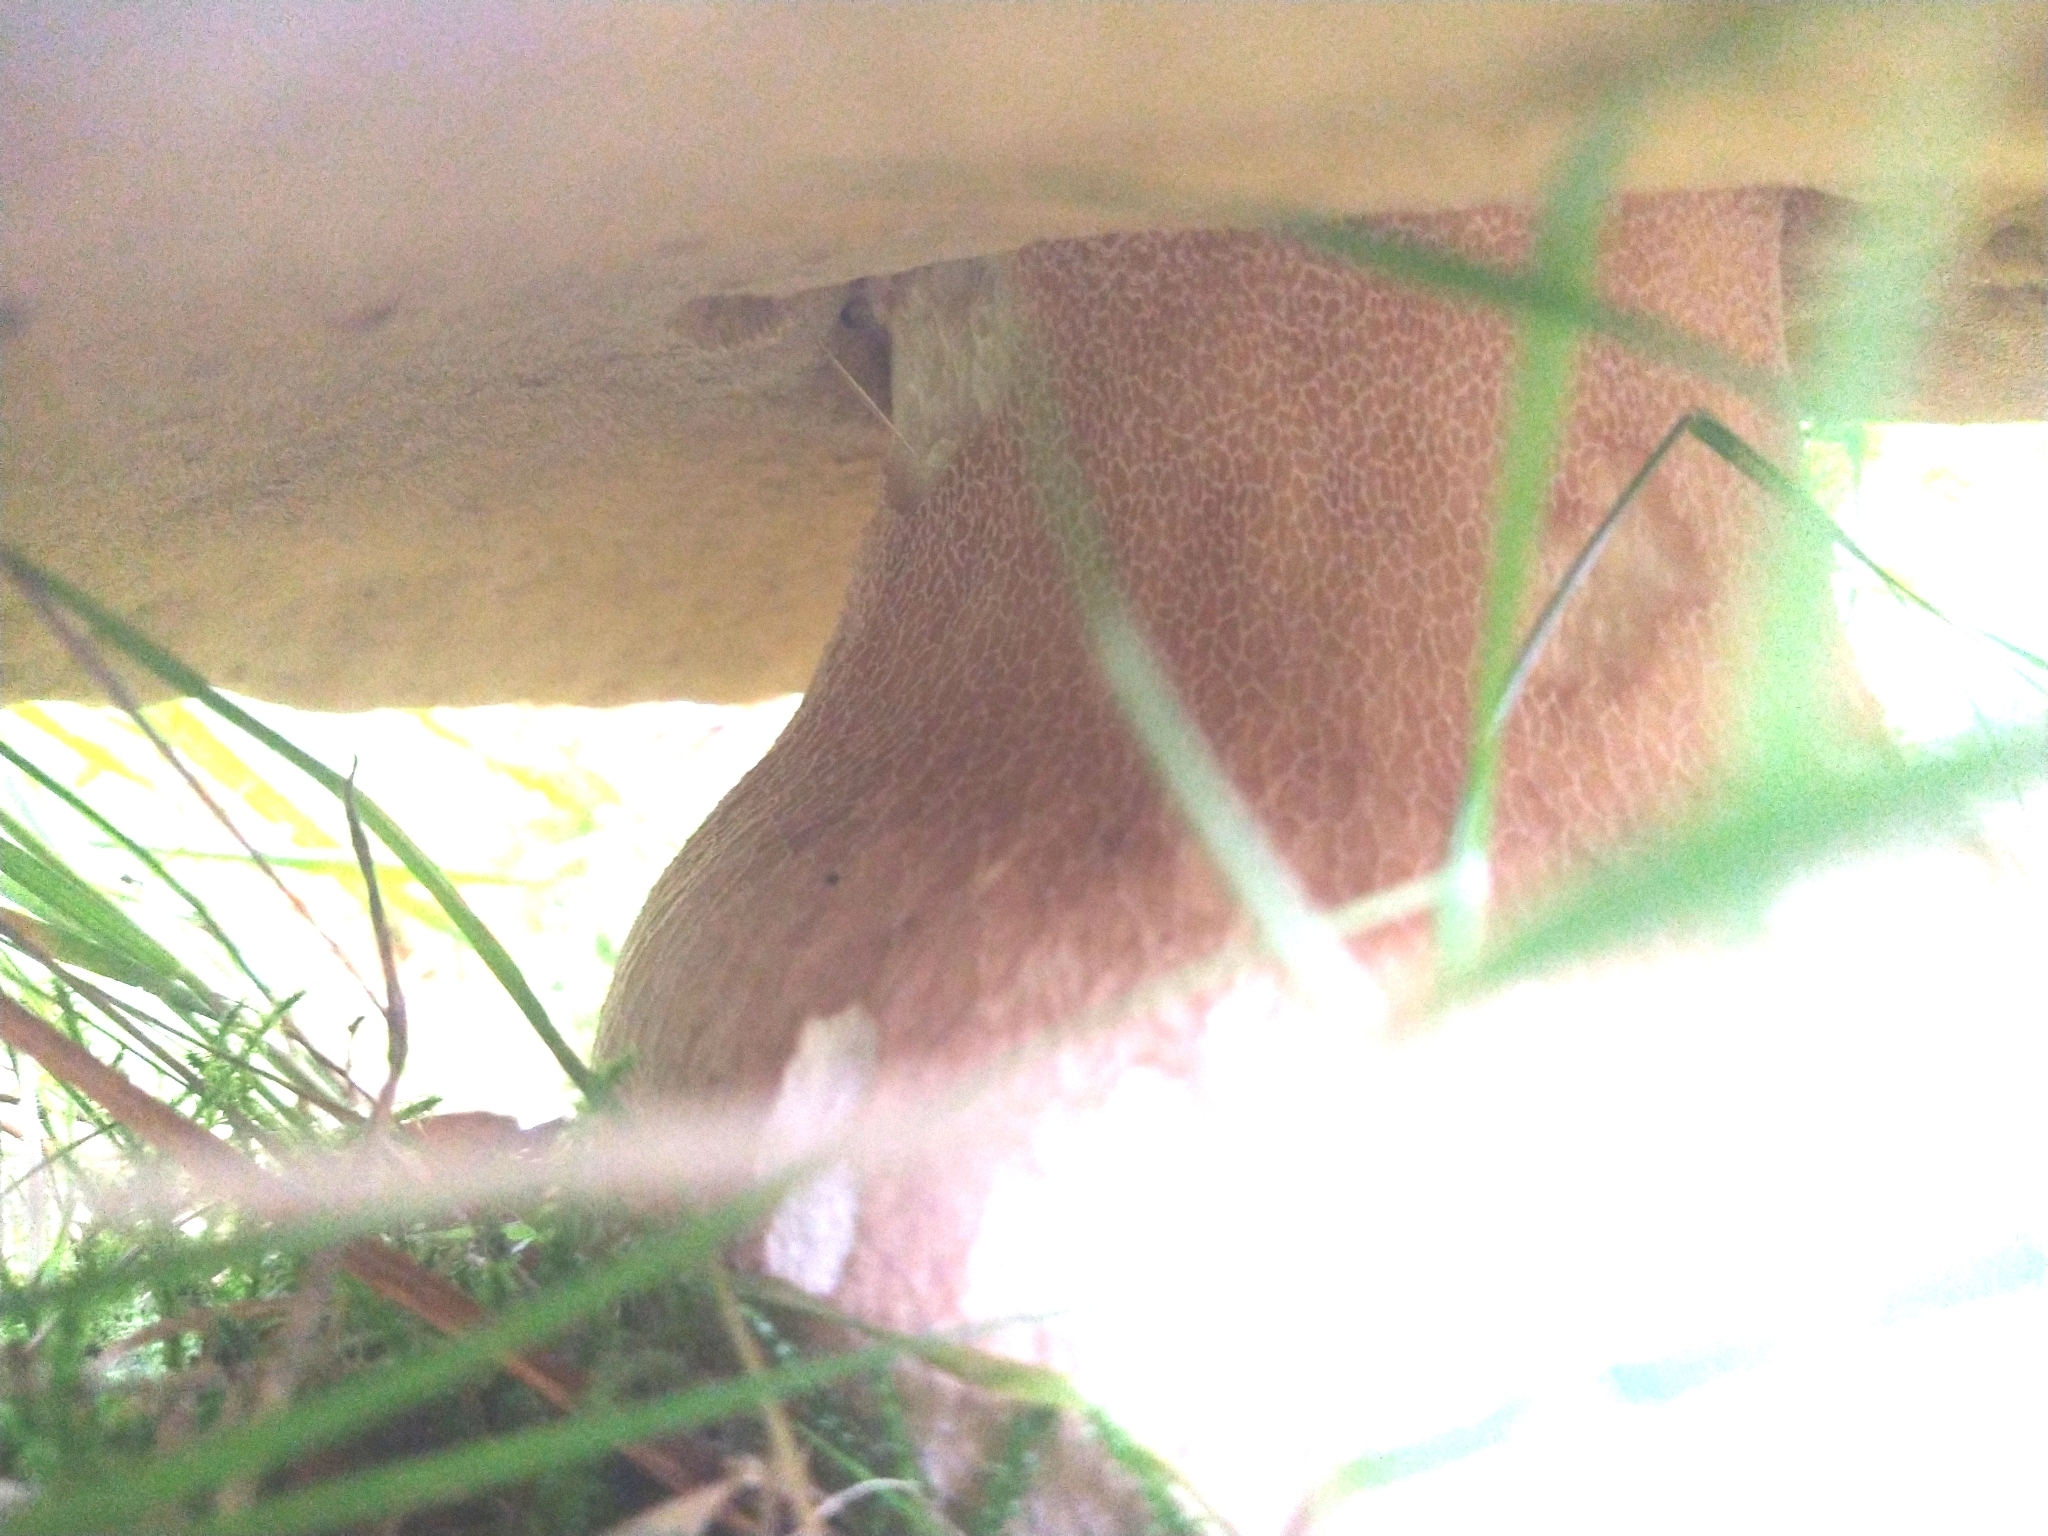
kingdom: Fungi
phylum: Basidiomycota
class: Agaricomycetes
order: Boletales
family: Boletaceae
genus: Boletus
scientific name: Boletus edulis
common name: Cep
